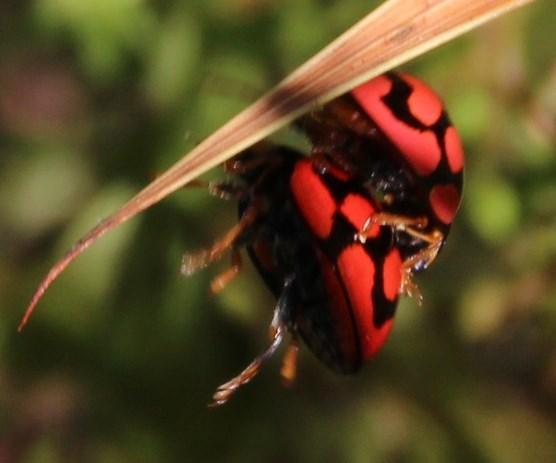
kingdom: Animalia
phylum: Arthropoda
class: Insecta
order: Coleoptera
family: Coccinellidae
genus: Cheilomenes
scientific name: Cheilomenes lunata
